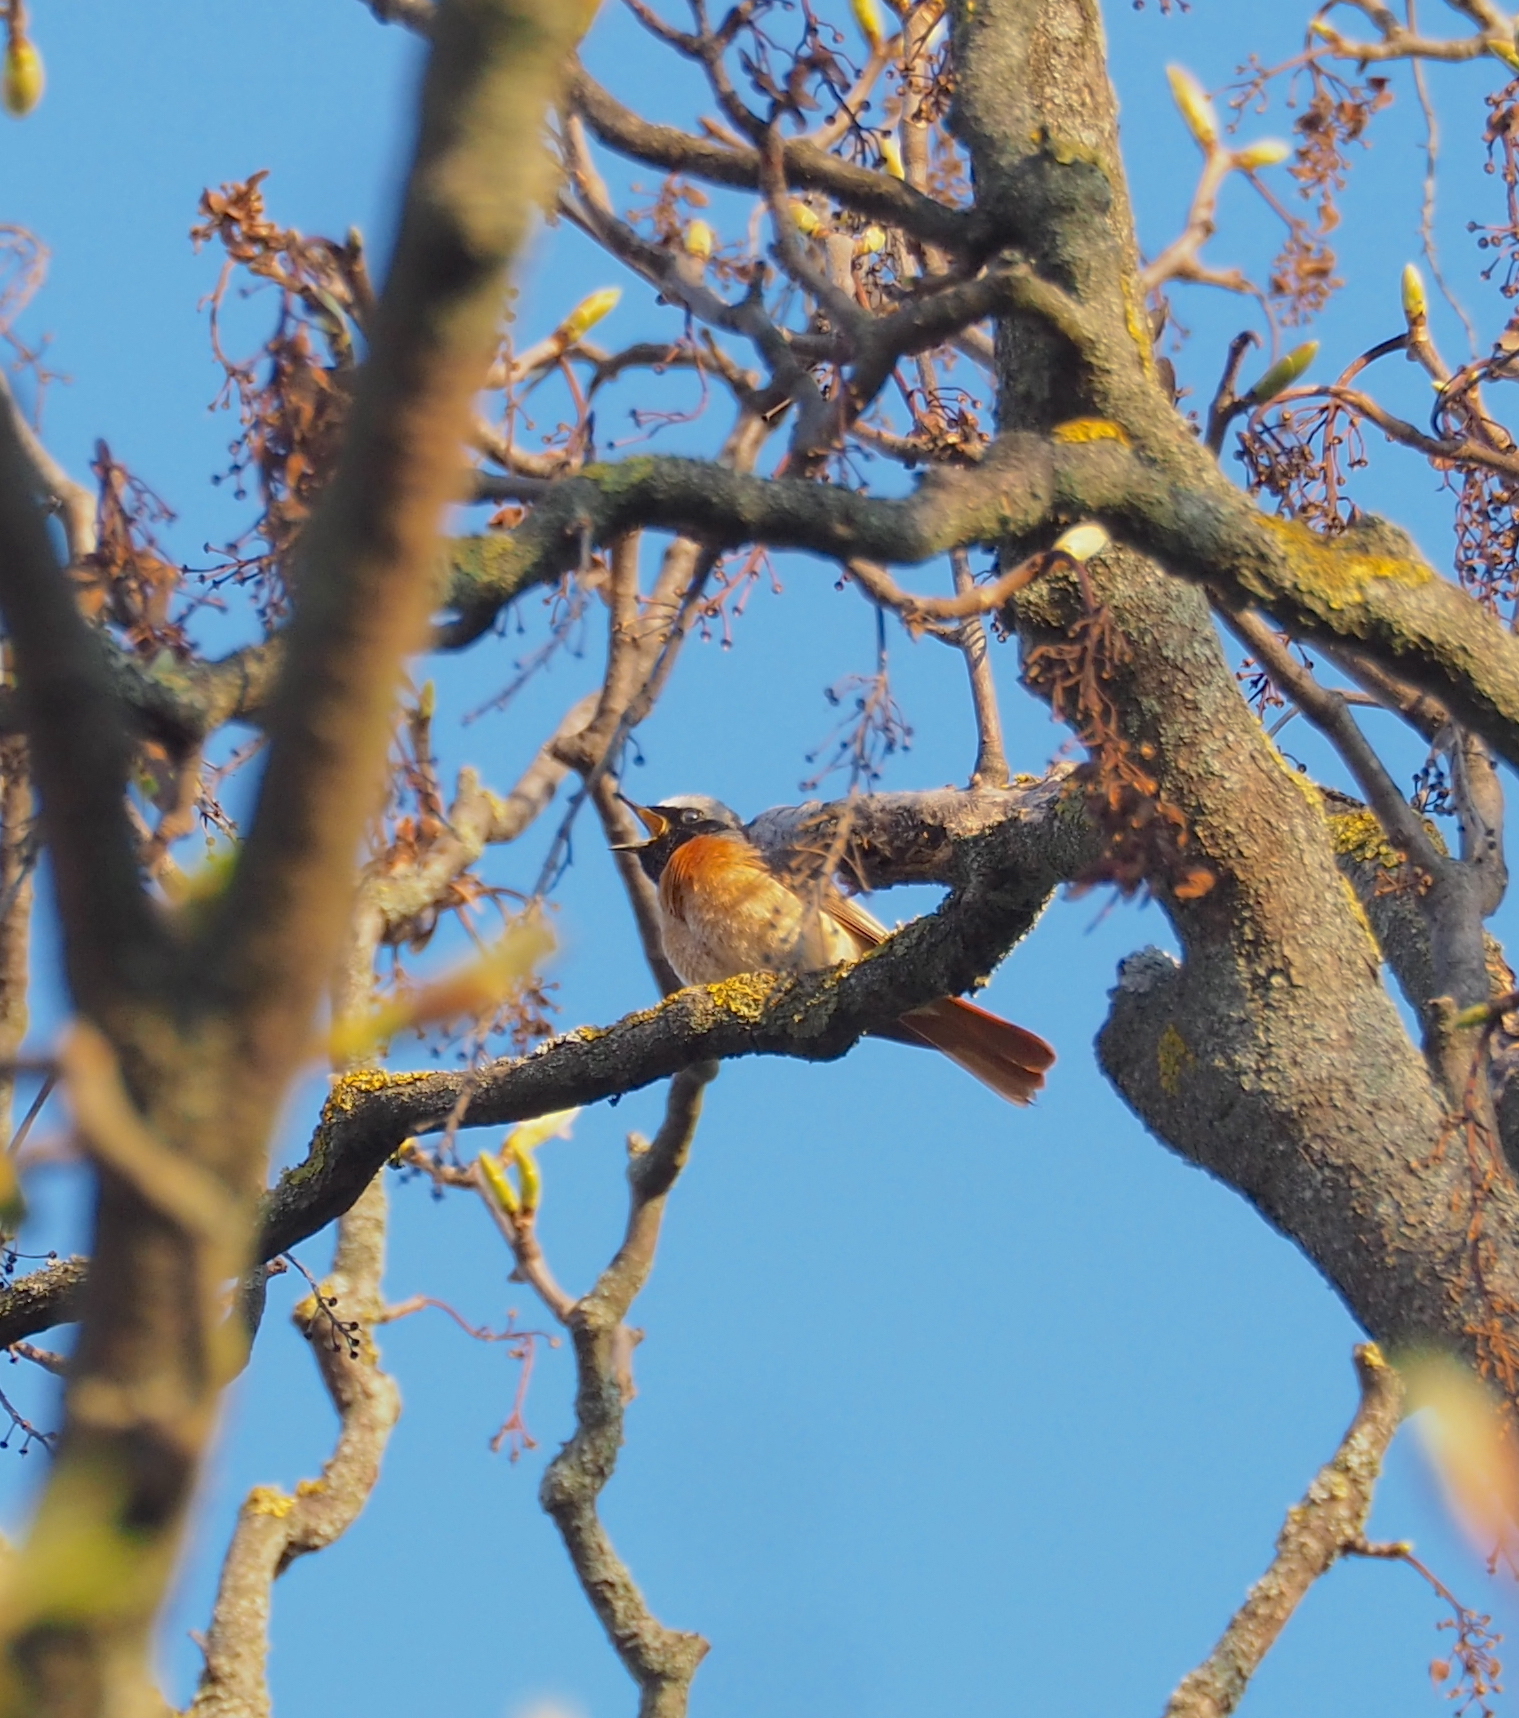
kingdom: Animalia
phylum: Chordata
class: Aves
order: Passeriformes
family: Muscicapidae
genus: Phoenicurus
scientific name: Phoenicurus phoenicurus
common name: Common redstart
